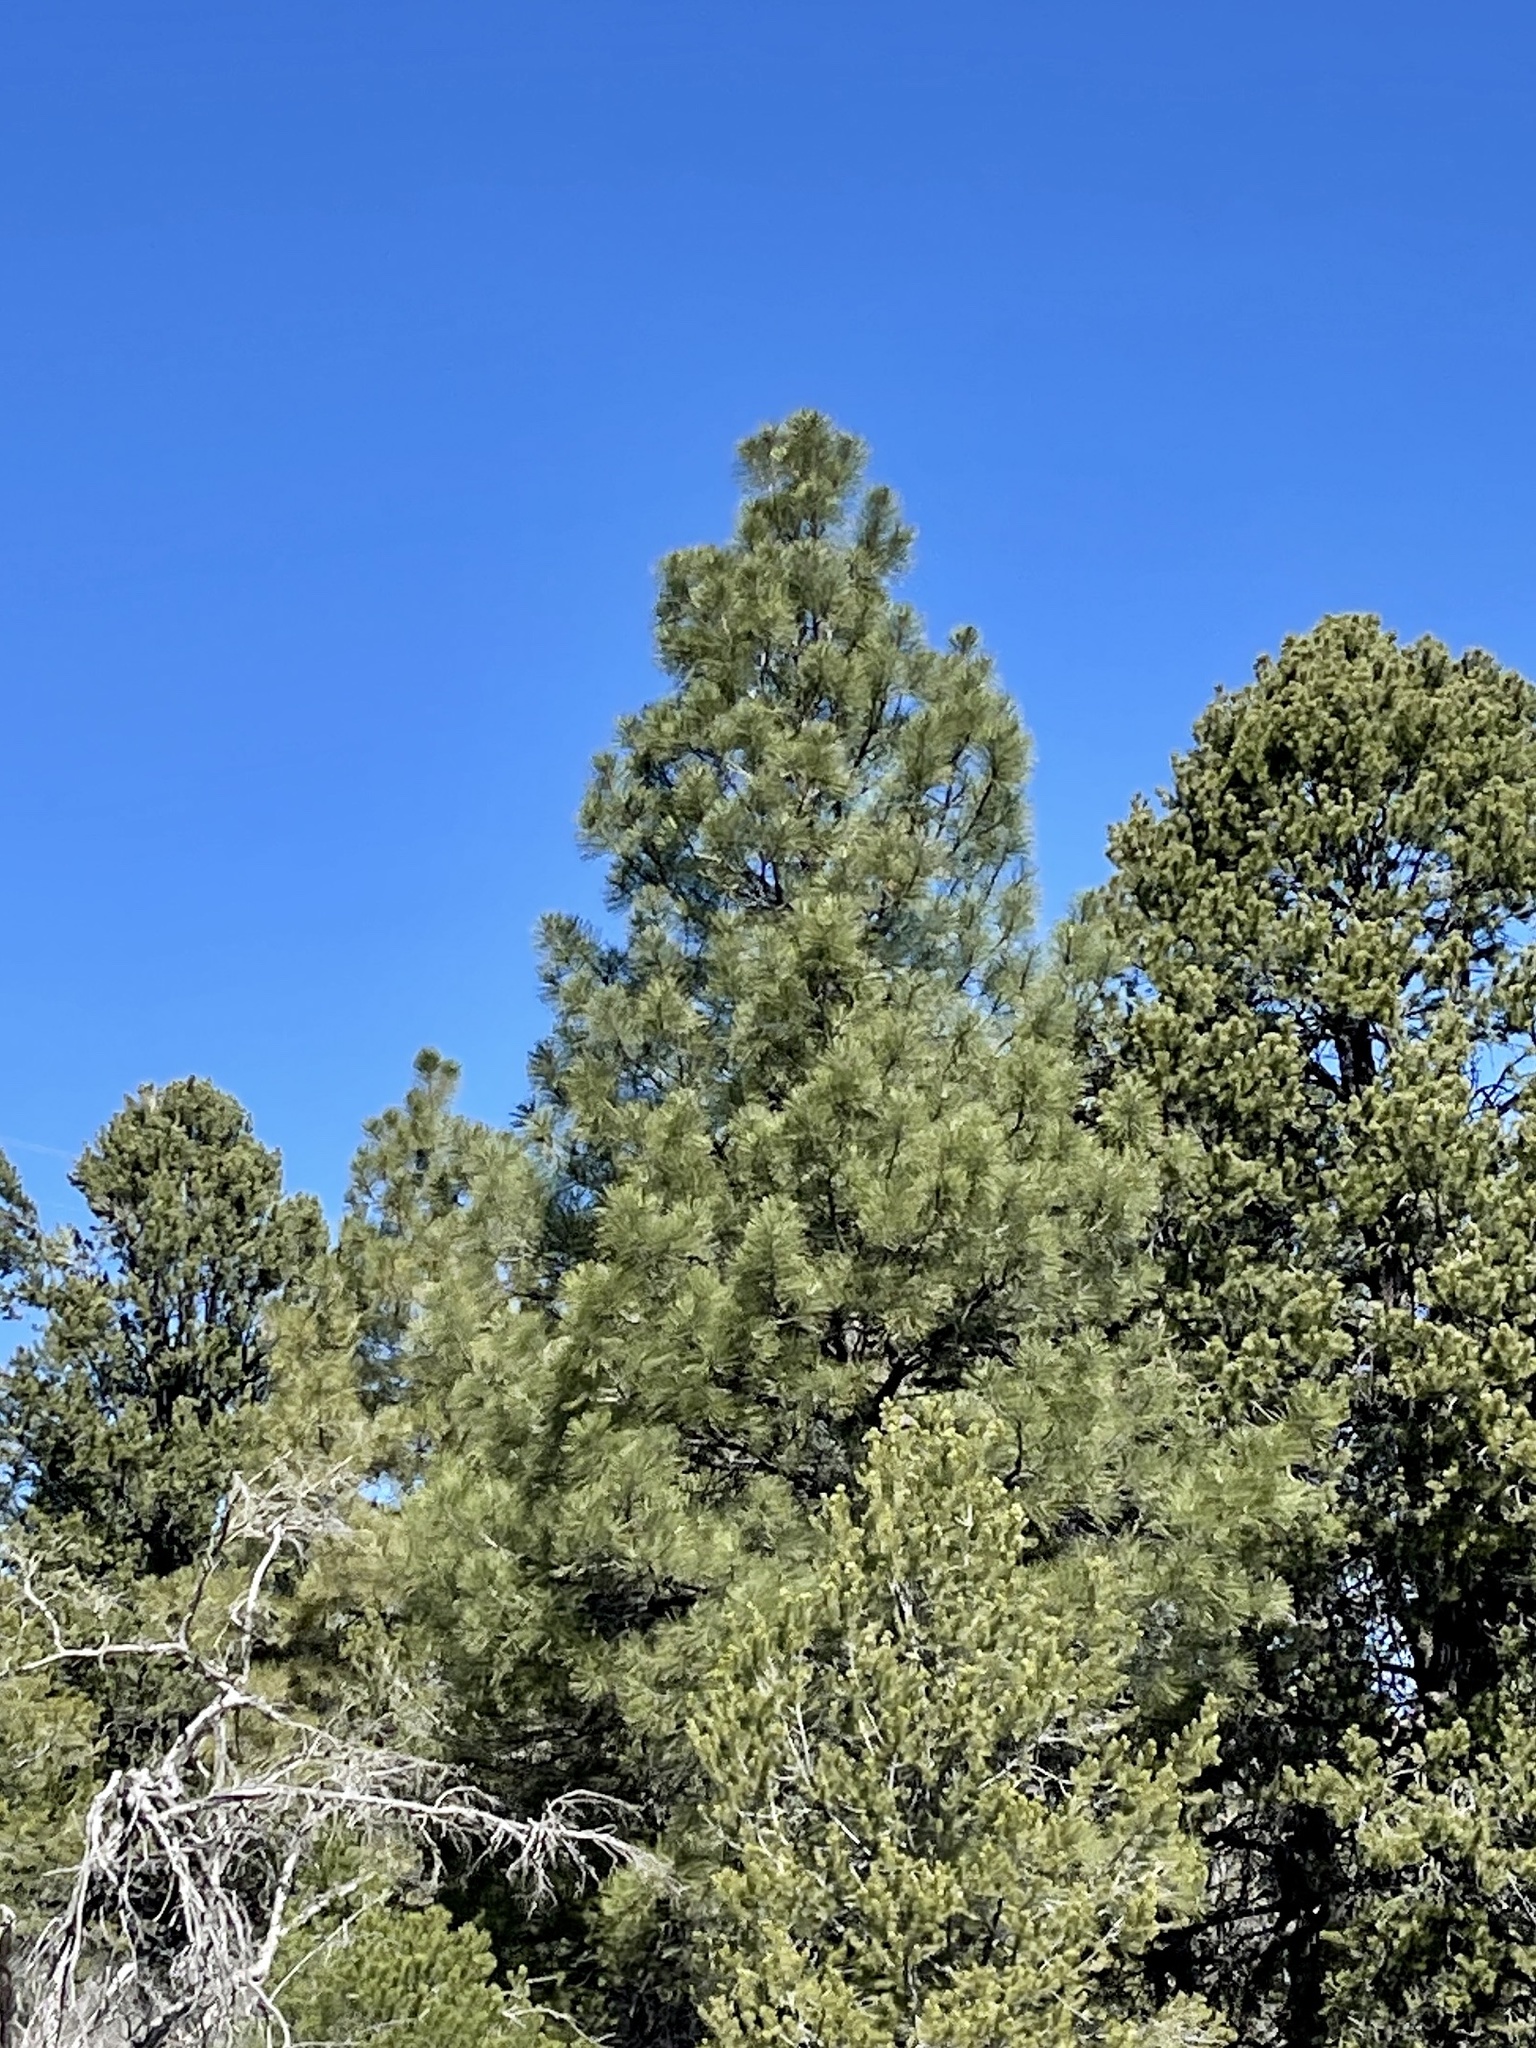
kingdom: Plantae
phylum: Tracheophyta
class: Pinopsida
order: Pinales
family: Pinaceae
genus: Pinus
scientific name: Pinus ponderosa
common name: Western yellow-pine
